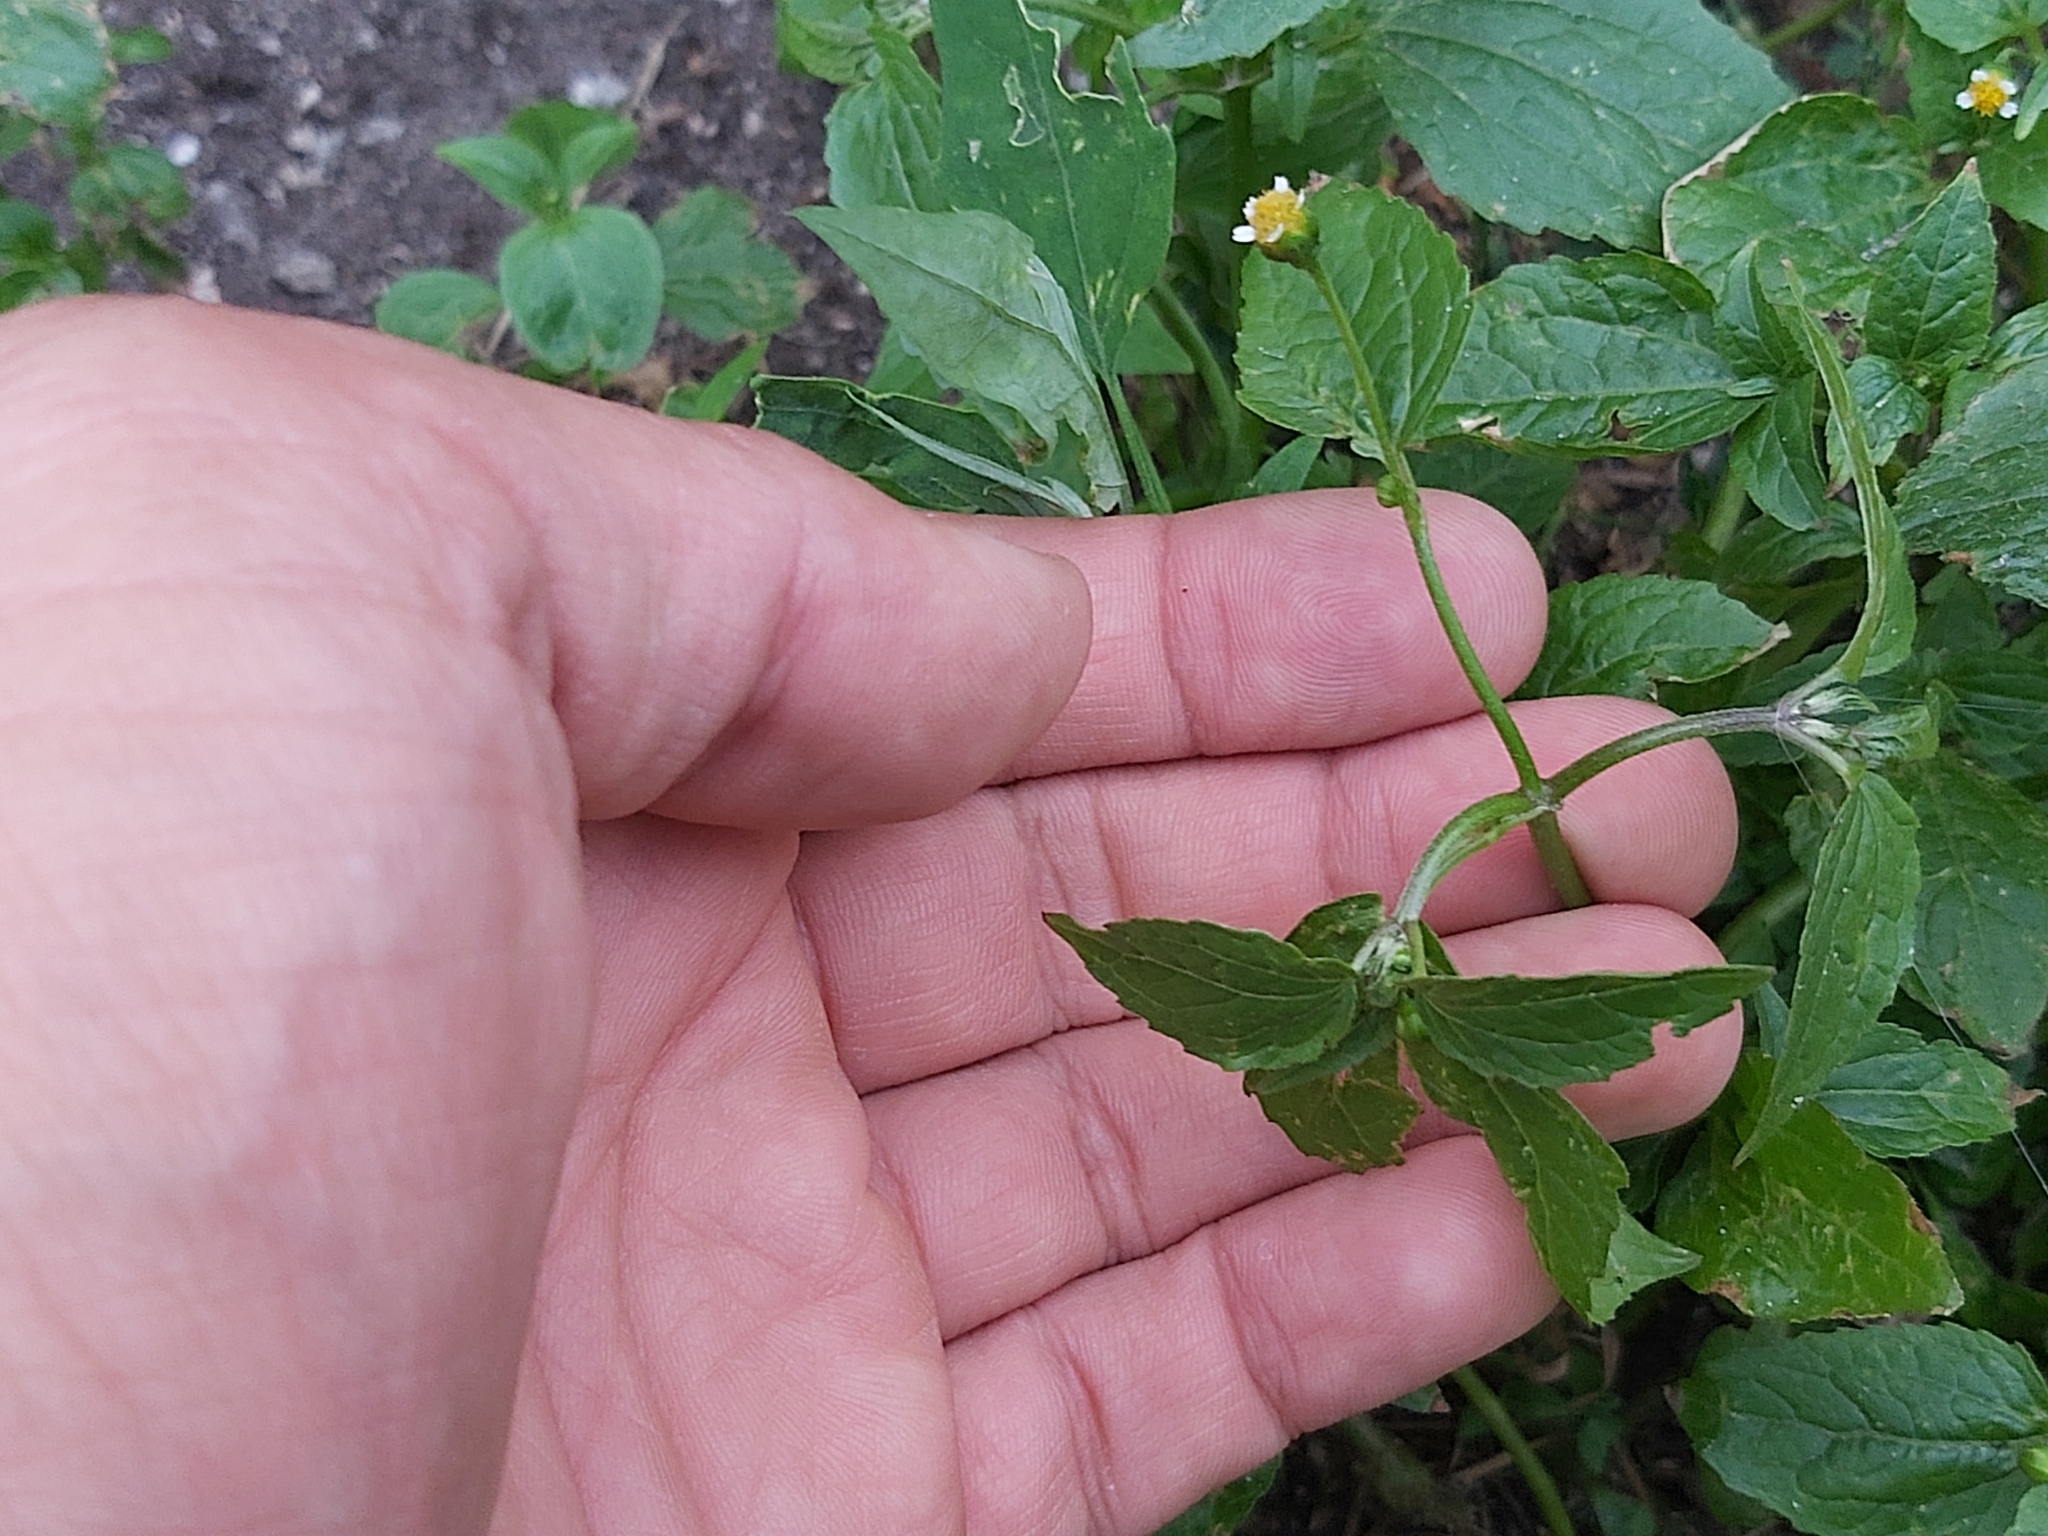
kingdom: Plantae
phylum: Tracheophyta
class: Magnoliopsida
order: Asterales
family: Asteraceae
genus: Galinsoga
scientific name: Galinsoga parviflora
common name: Gallant soldier
